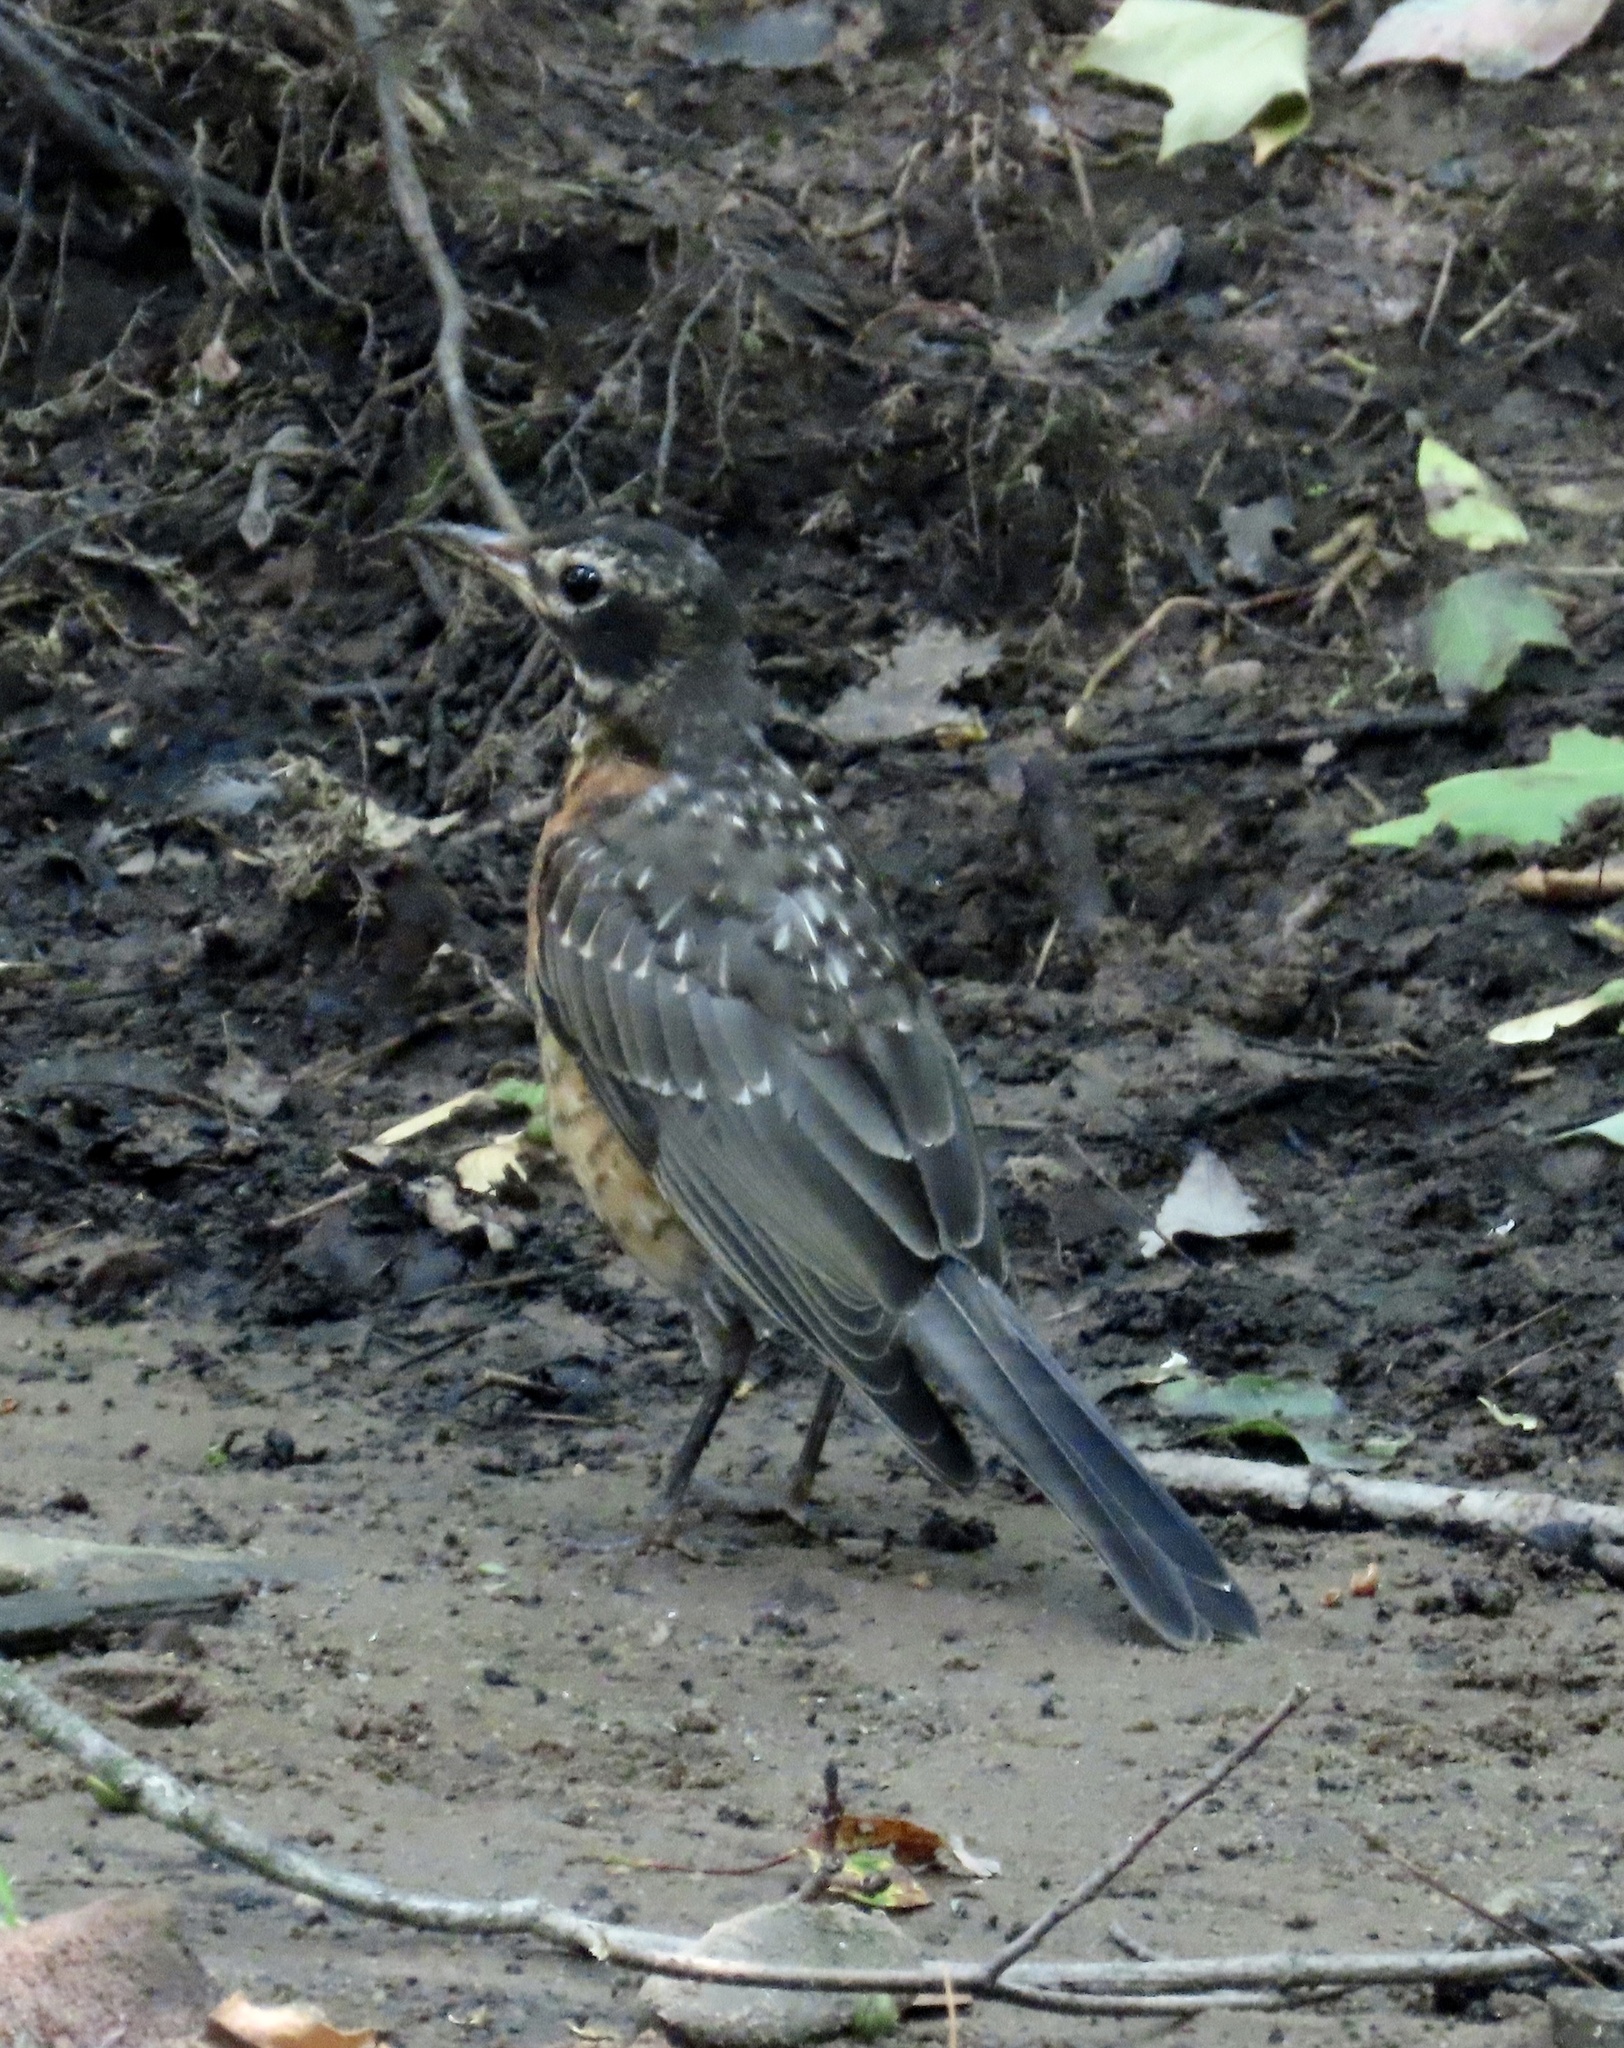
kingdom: Animalia
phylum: Chordata
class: Aves
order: Passeriformes
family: Turdidae
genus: Turdus
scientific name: Turdus migratorius
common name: American robin
